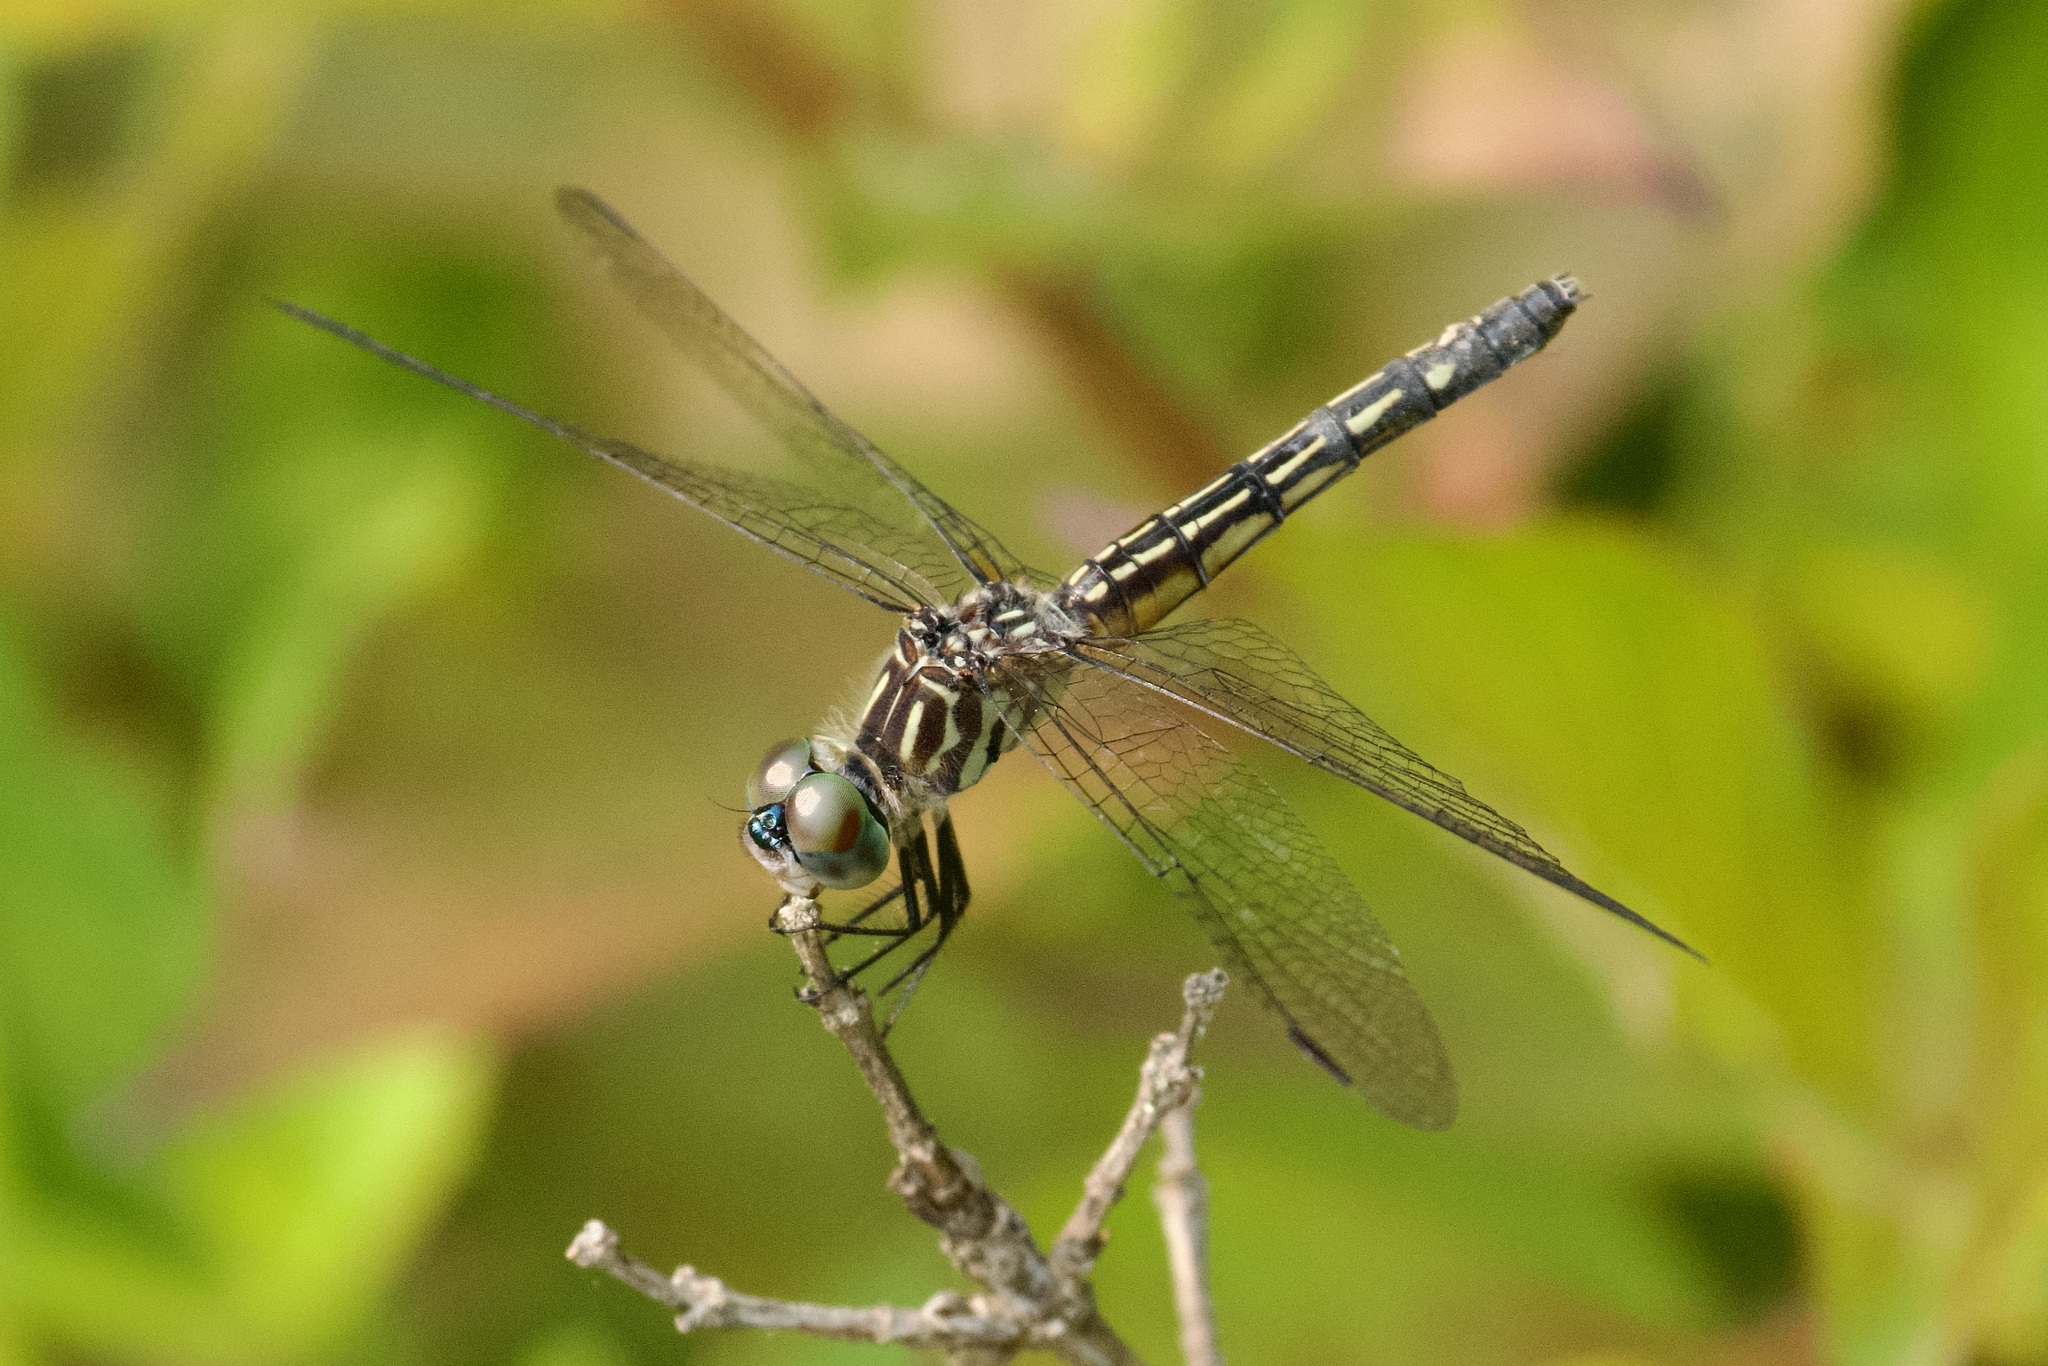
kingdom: Animalia
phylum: Arthropoda
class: Insecta
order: Odonata
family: Libellulidae
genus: Pachydiplax
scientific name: Pachydiplax longipennis
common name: Blue dasher
